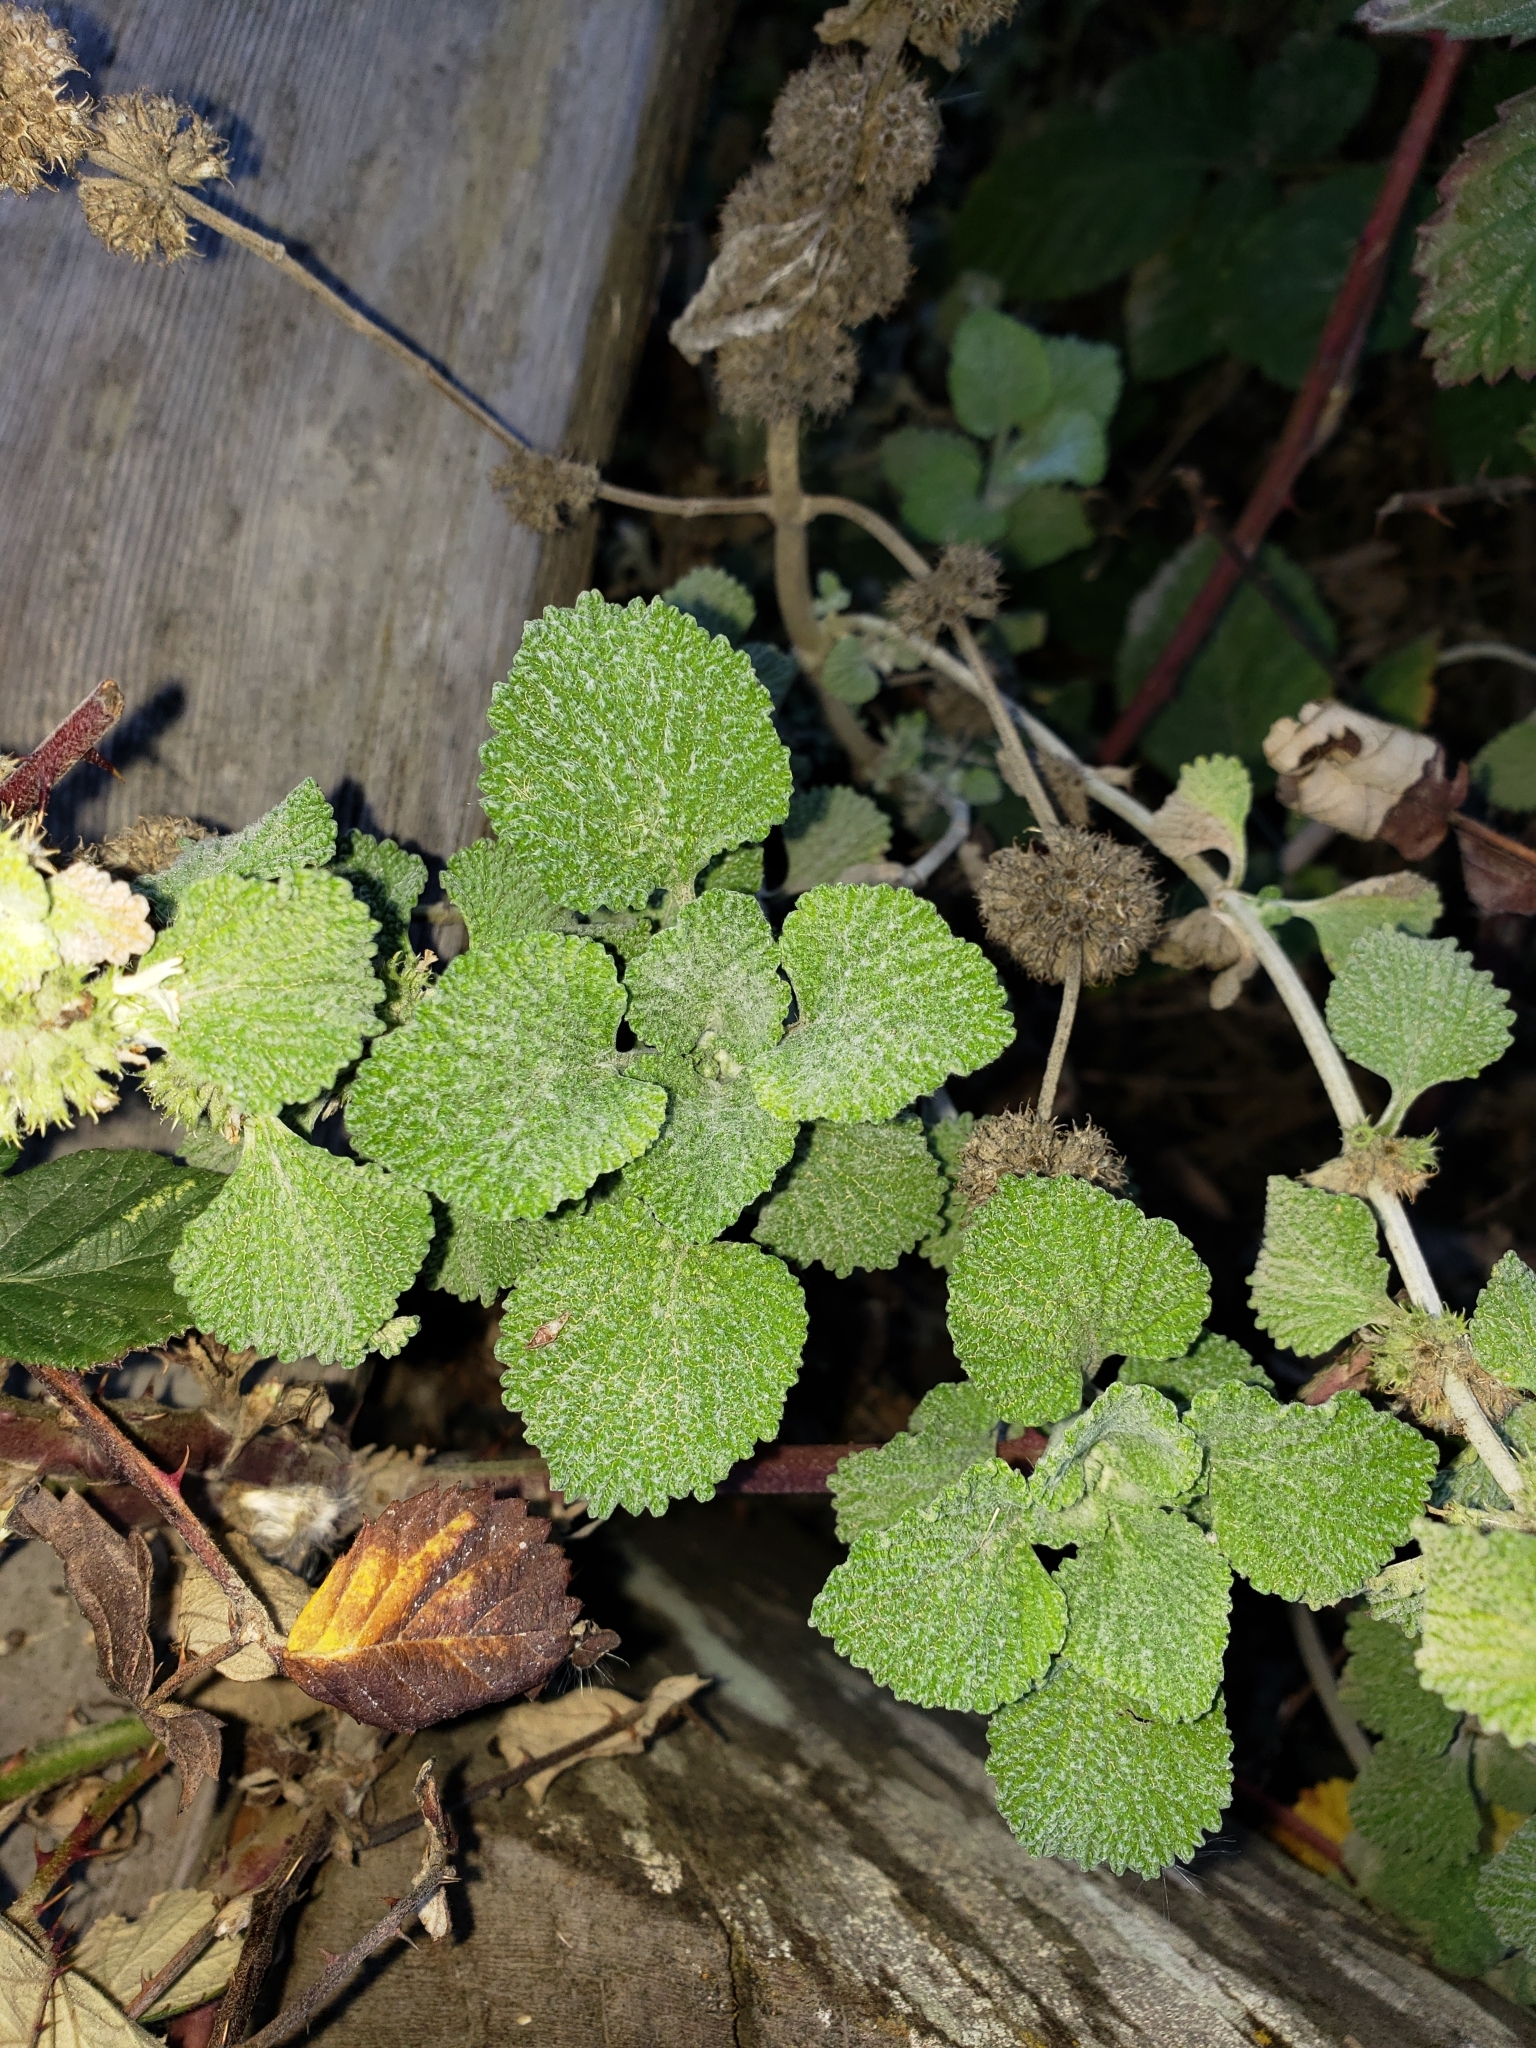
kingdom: Plantae
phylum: Tracheophyta
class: Magnoliopsida
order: Lamiales
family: Lamiaceae
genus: Marrubium
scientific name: Marrubium vulgare
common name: Horehound
